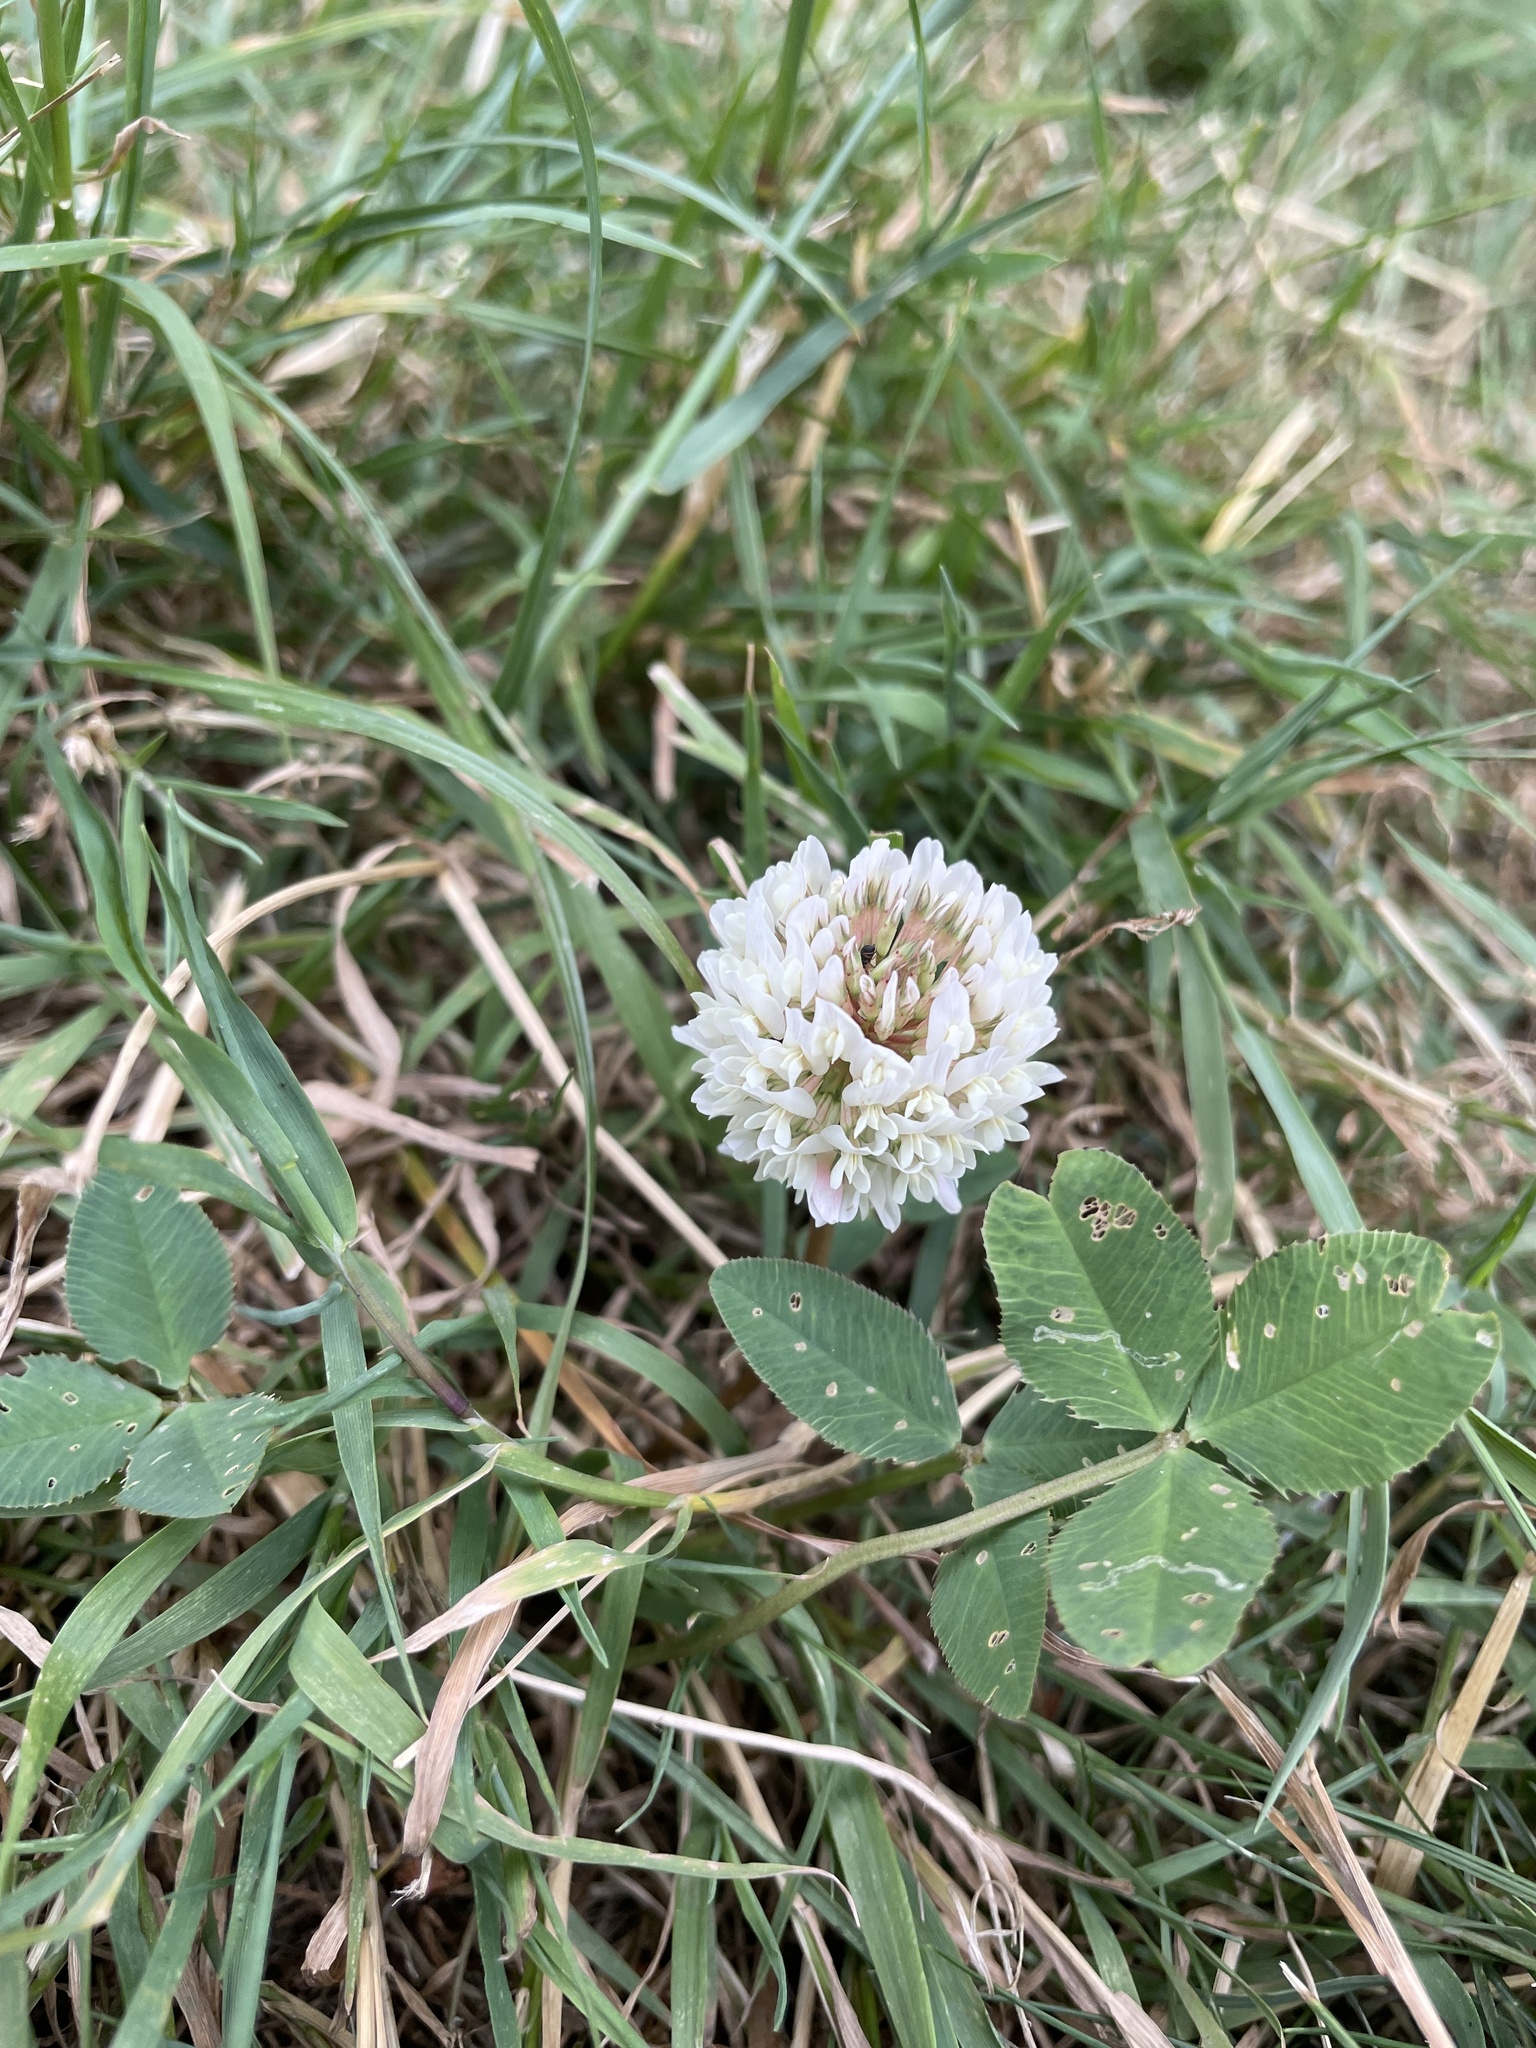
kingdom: Plantae
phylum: Tracheophyta
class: Magnoliopsida
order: Fabales
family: Fabaceae
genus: Trifolium
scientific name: Trifolium repens
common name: White clover
